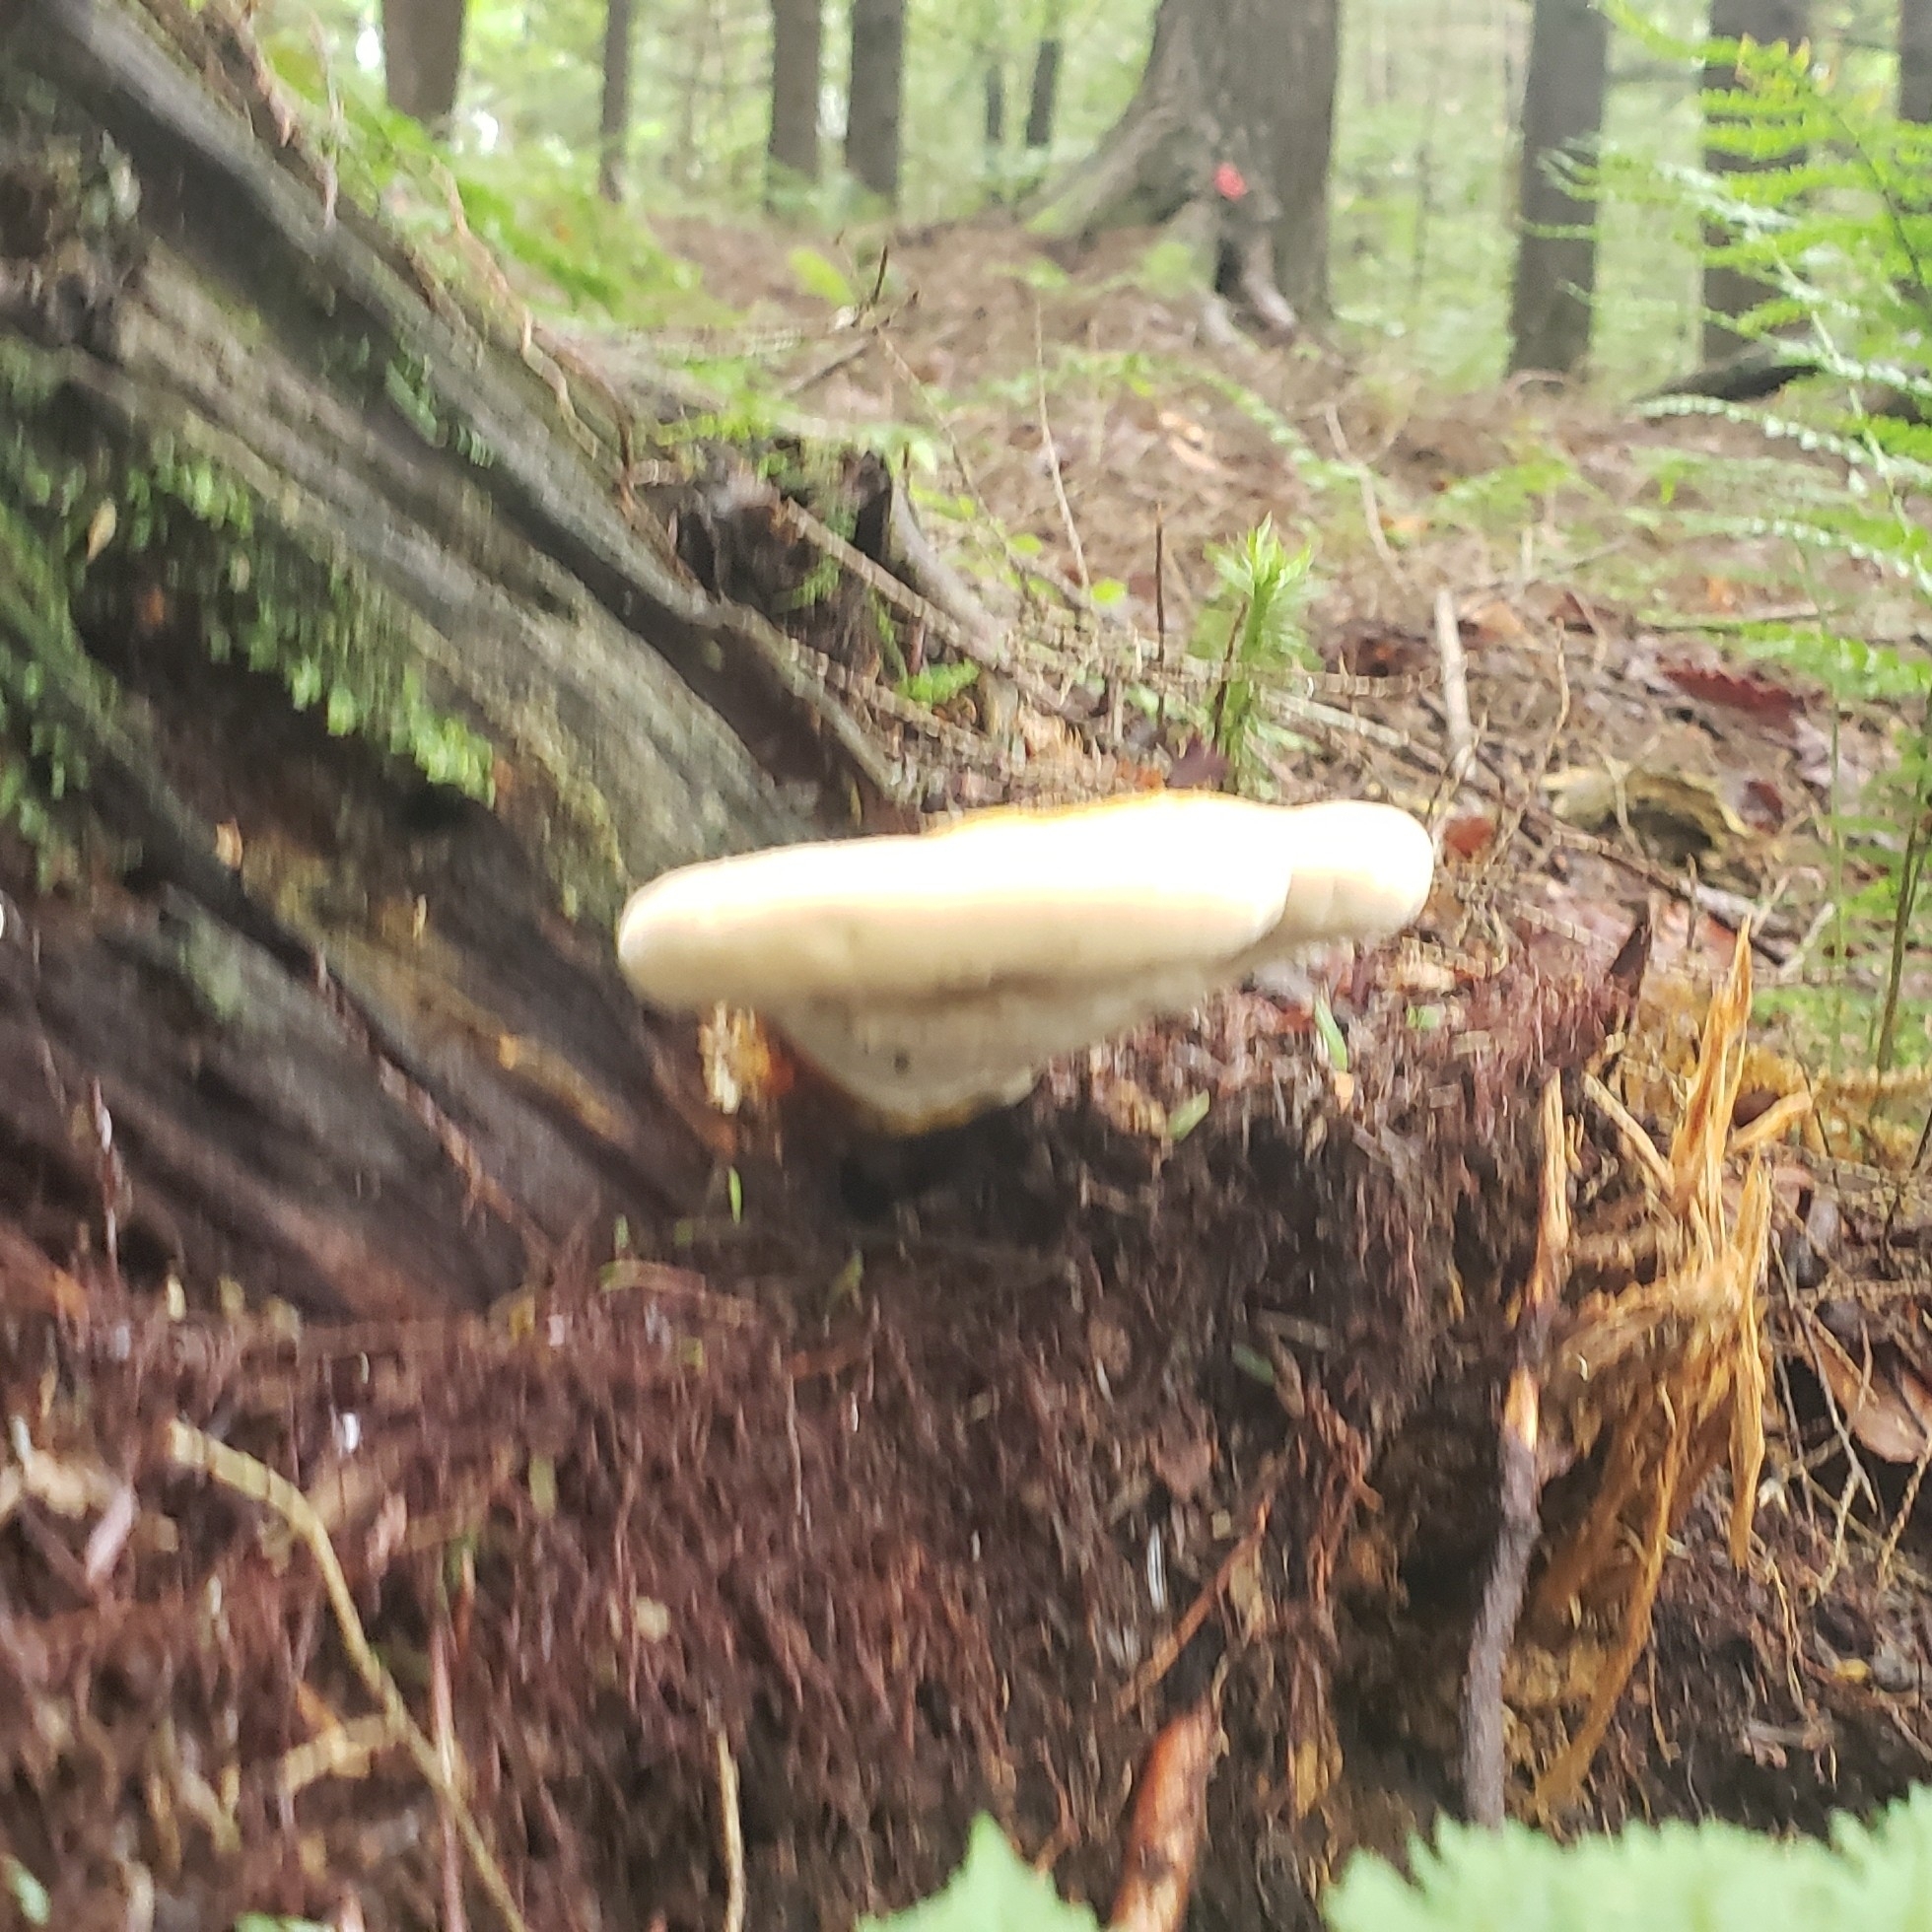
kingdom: Fungi
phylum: Basidiomycota
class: Agaricomycetes
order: Polyporales
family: Polyporaceae
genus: Ganoderma
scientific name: Ganoderma tsugae
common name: Hemlock varnish shelf
